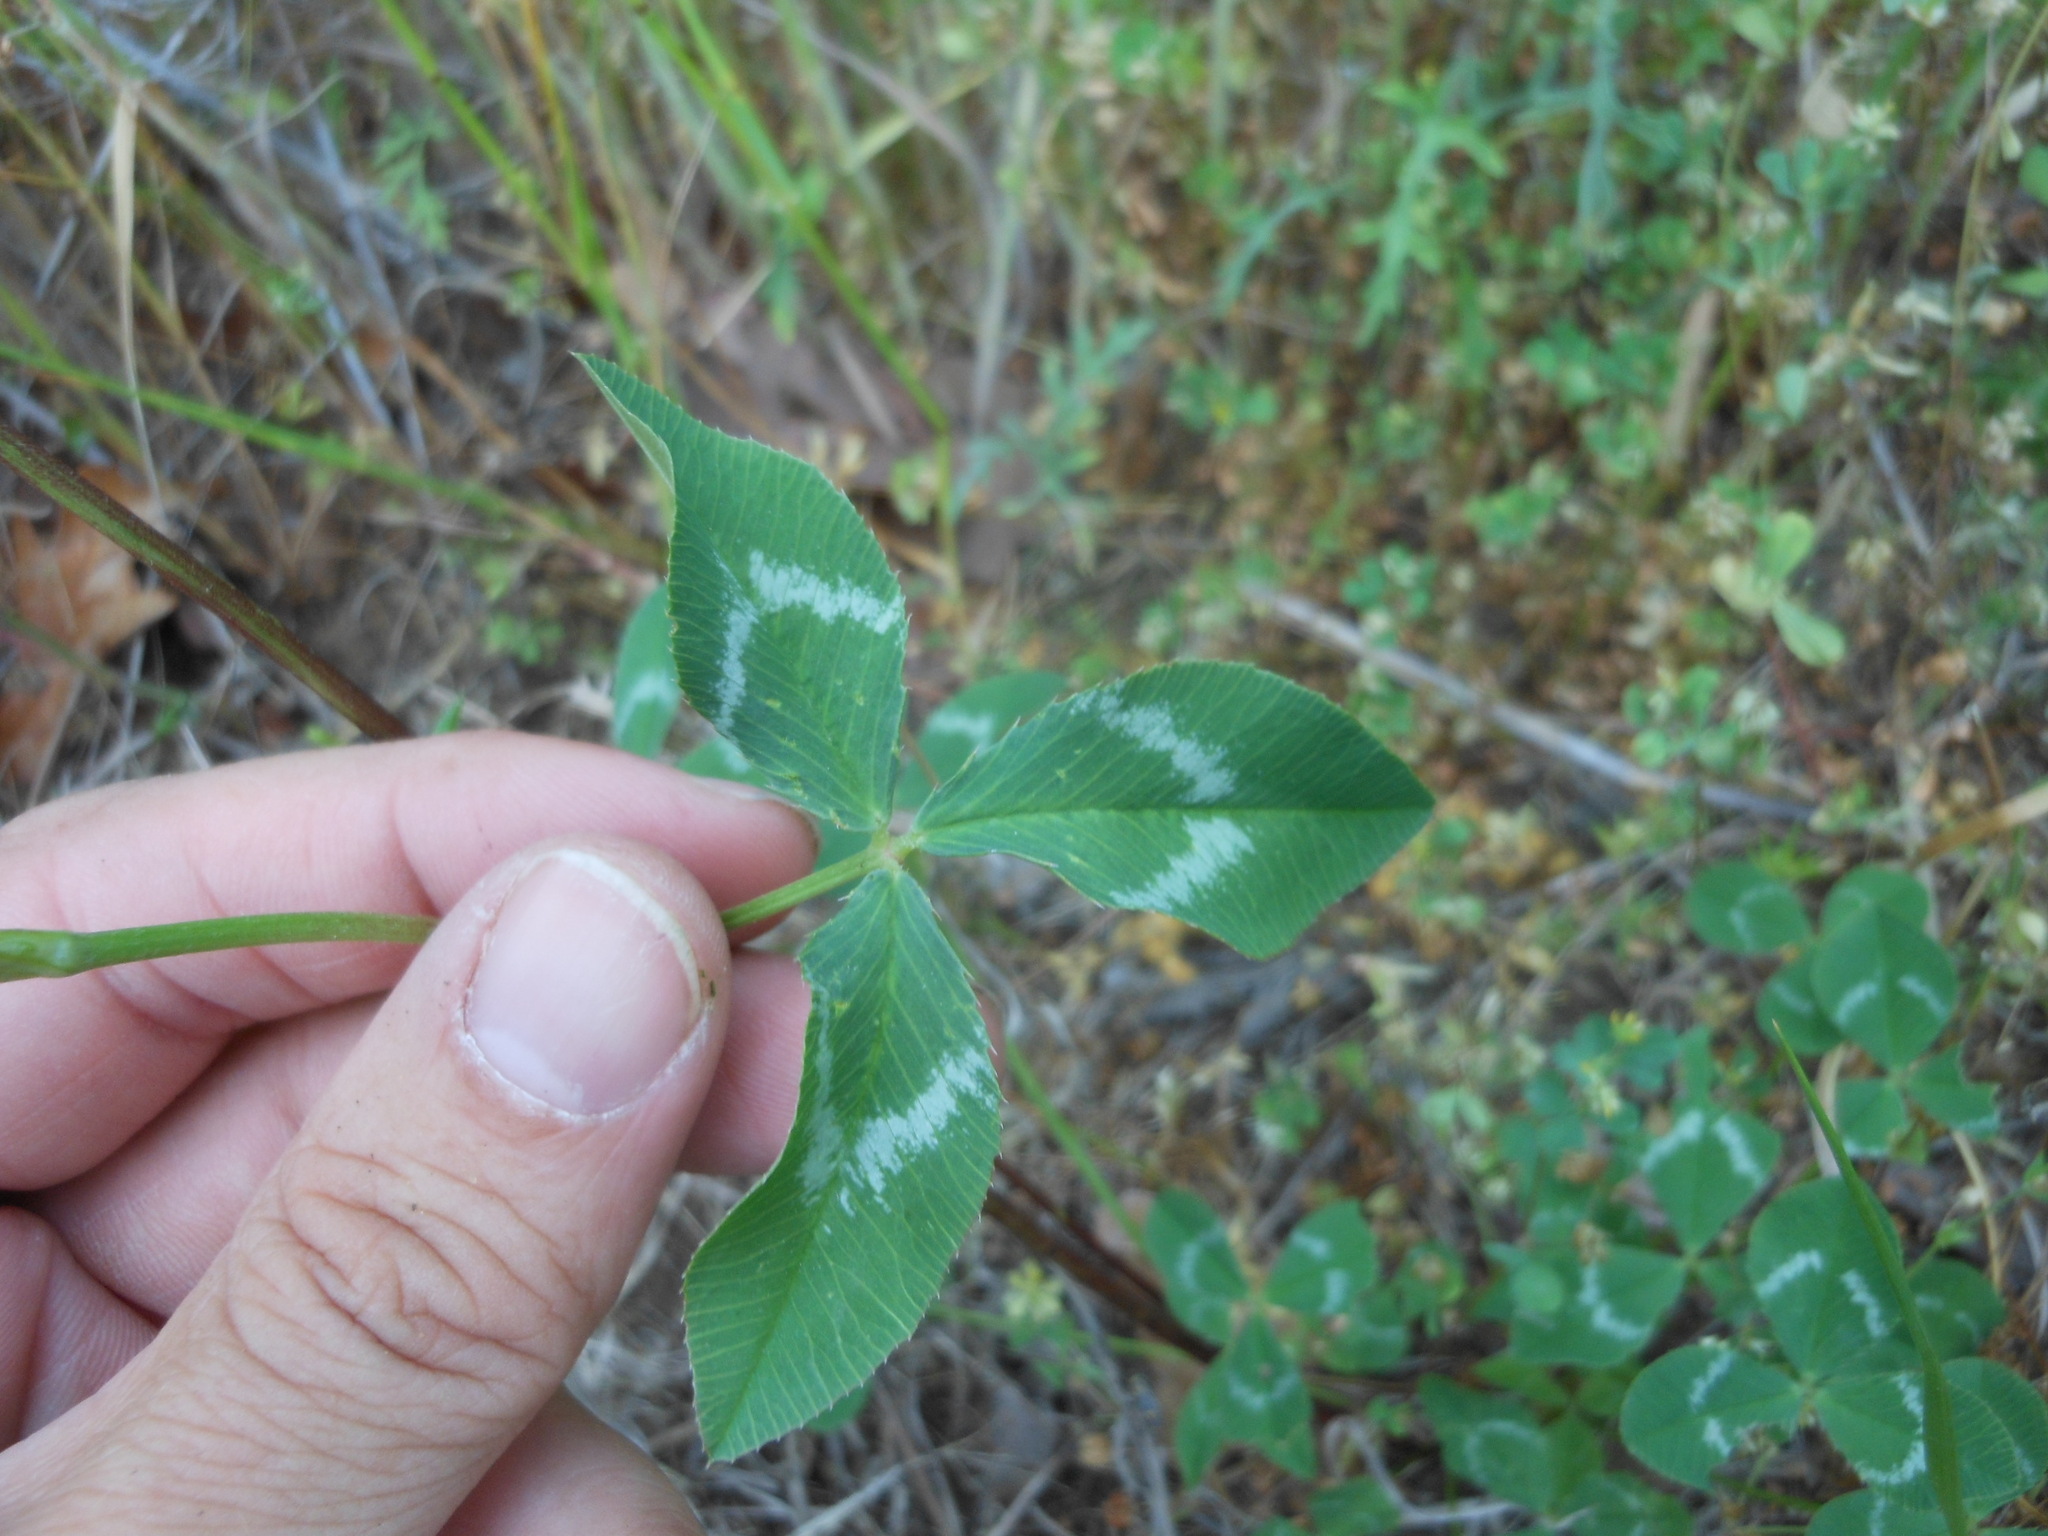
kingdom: Plantae
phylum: Tracheophyta
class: Magnoliopsida
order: Fabales
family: Fabaceae
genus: Trifolium
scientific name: Trifolium repens
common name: White clover
